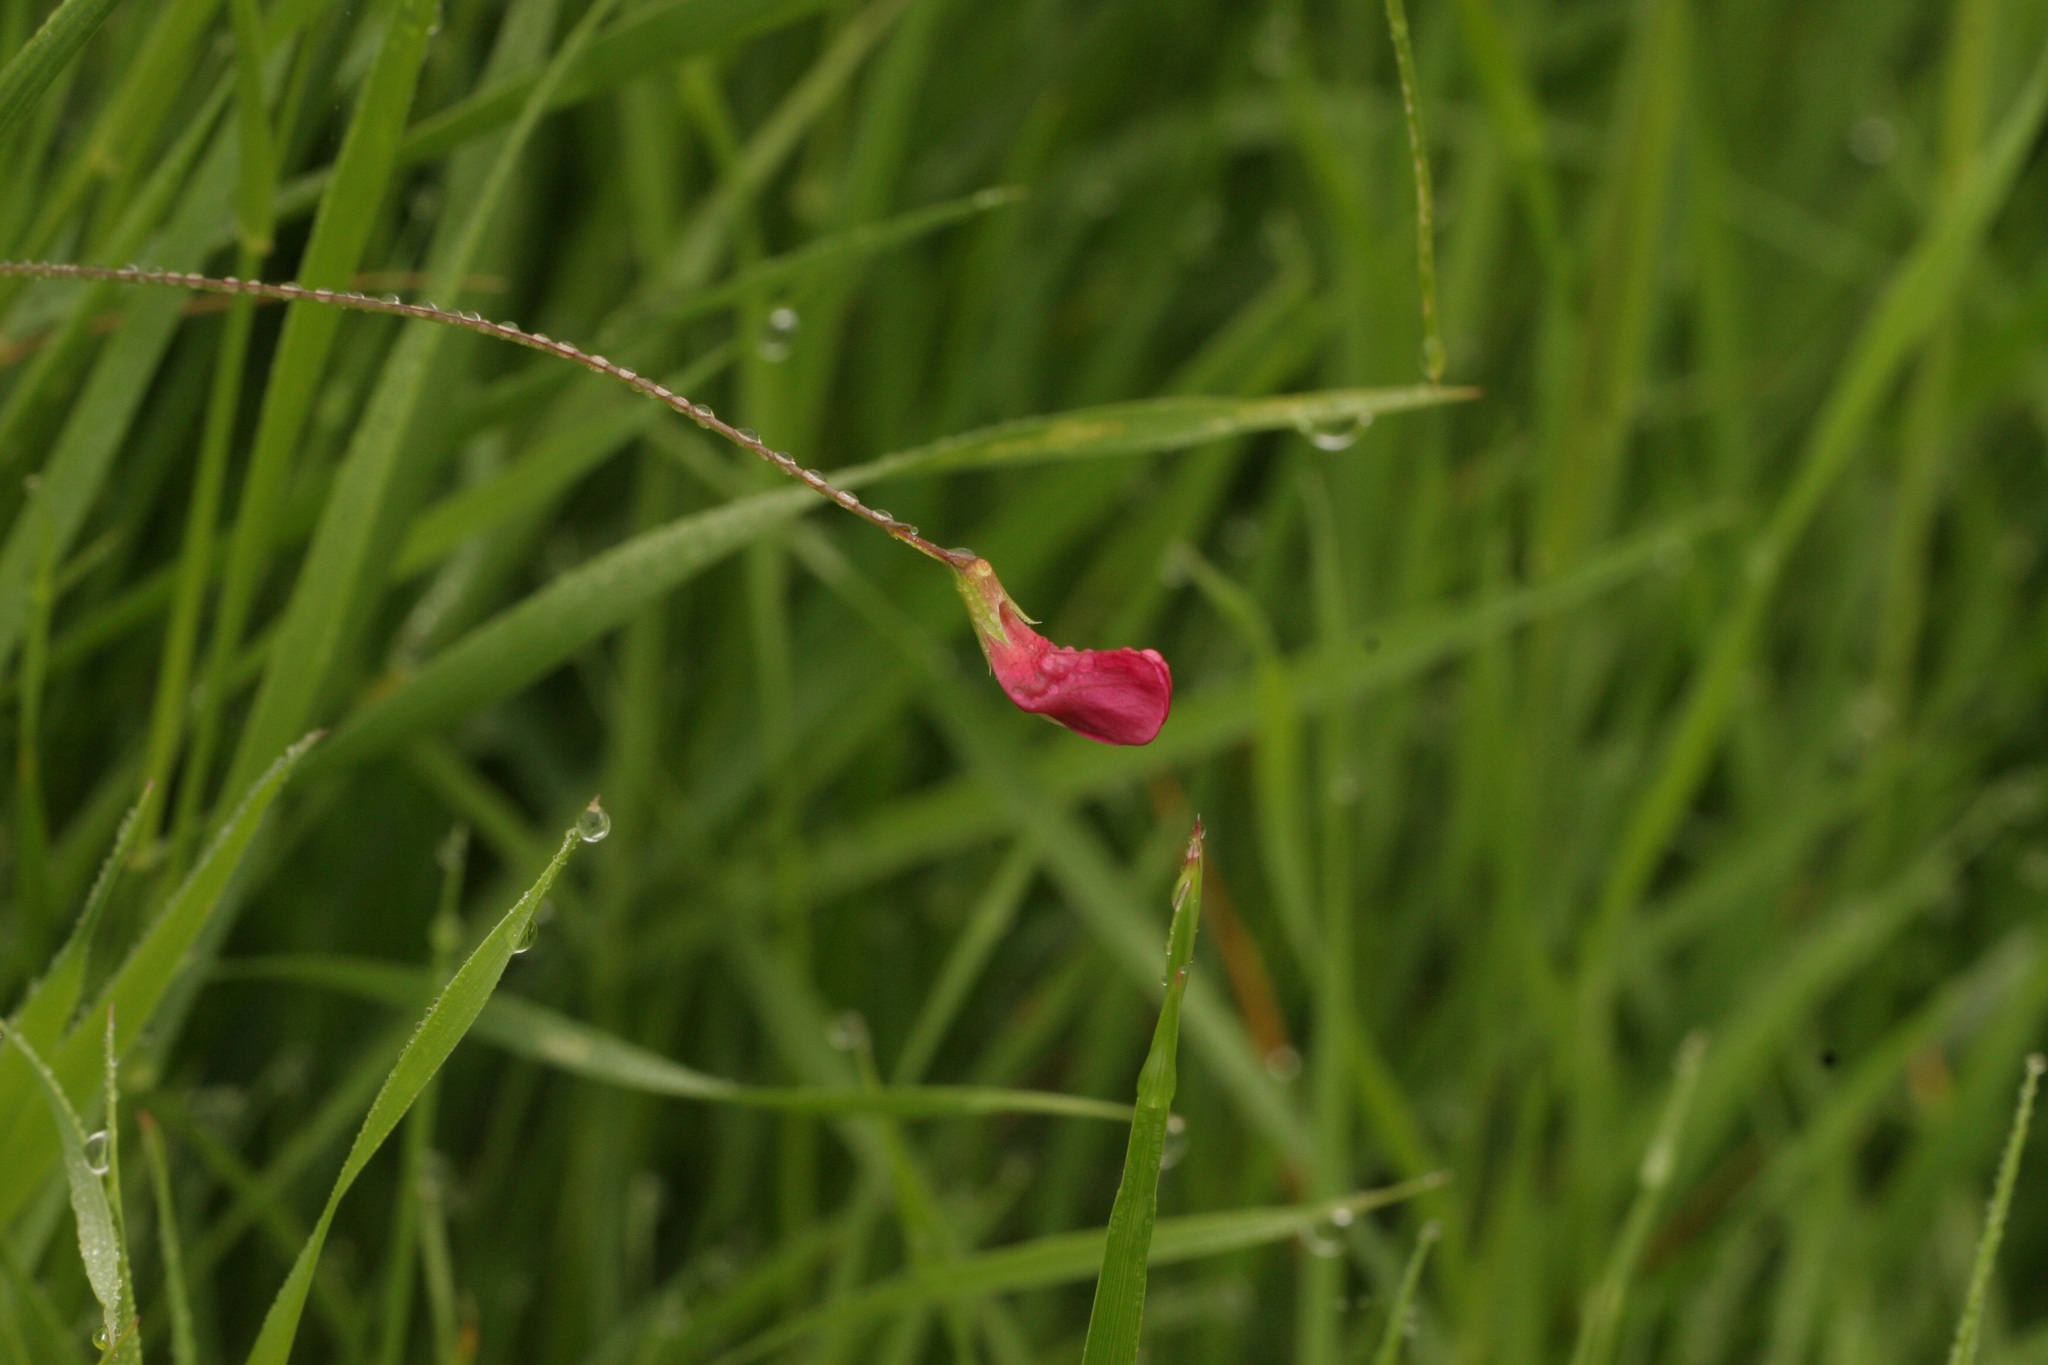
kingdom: Plantae
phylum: Tracheophyta
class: Magnoliopsida
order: Fabales
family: Fabaceae
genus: Lathyrus
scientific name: Lathyrus nissolia
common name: Grass vetchling
